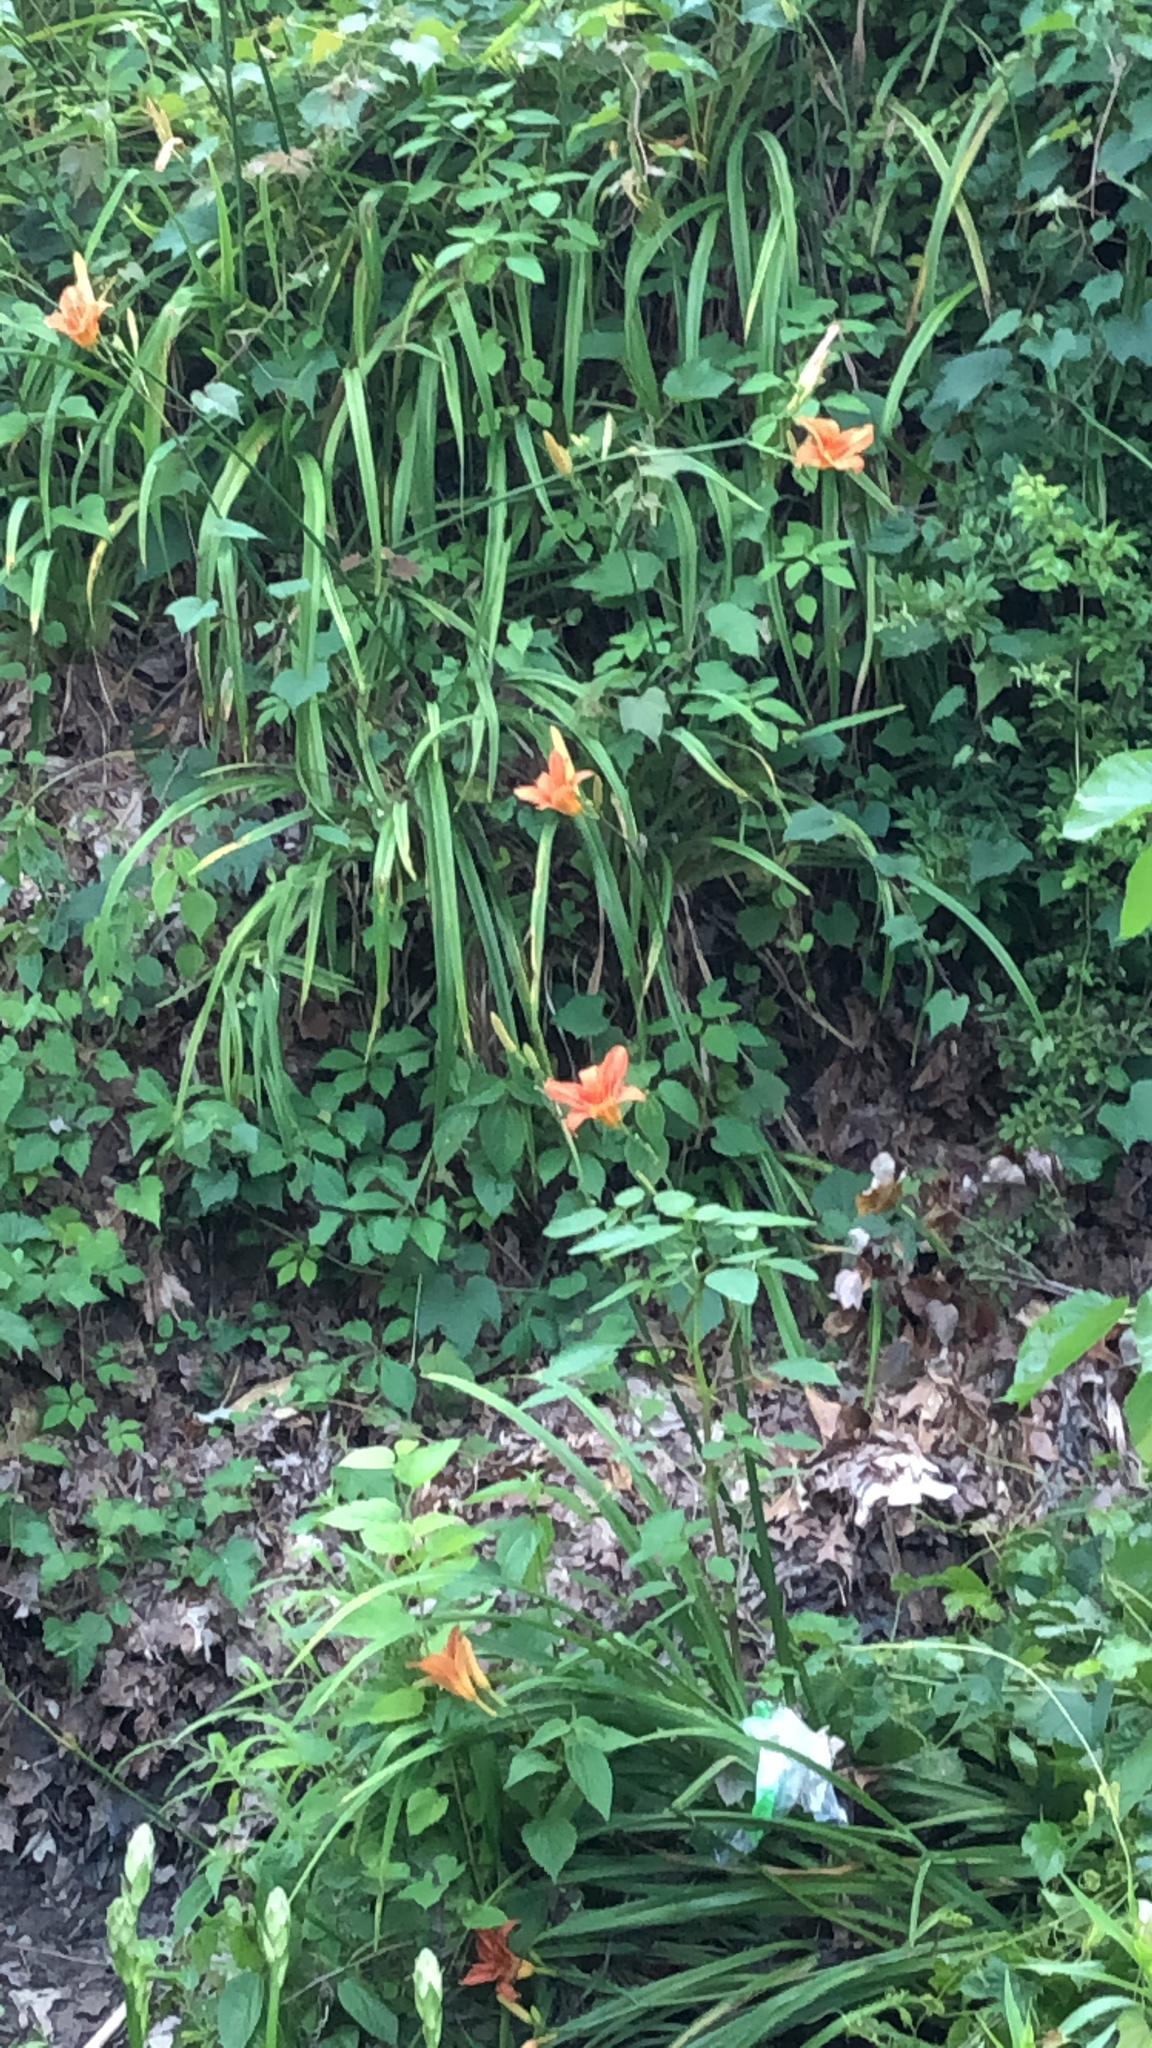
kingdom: Plantae
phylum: Tracheophyta
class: Liliopsida
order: Asparagales
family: Asphodelaceae
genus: Hemerocallis
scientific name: Hemerocallis fulva
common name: Orange day-lily
